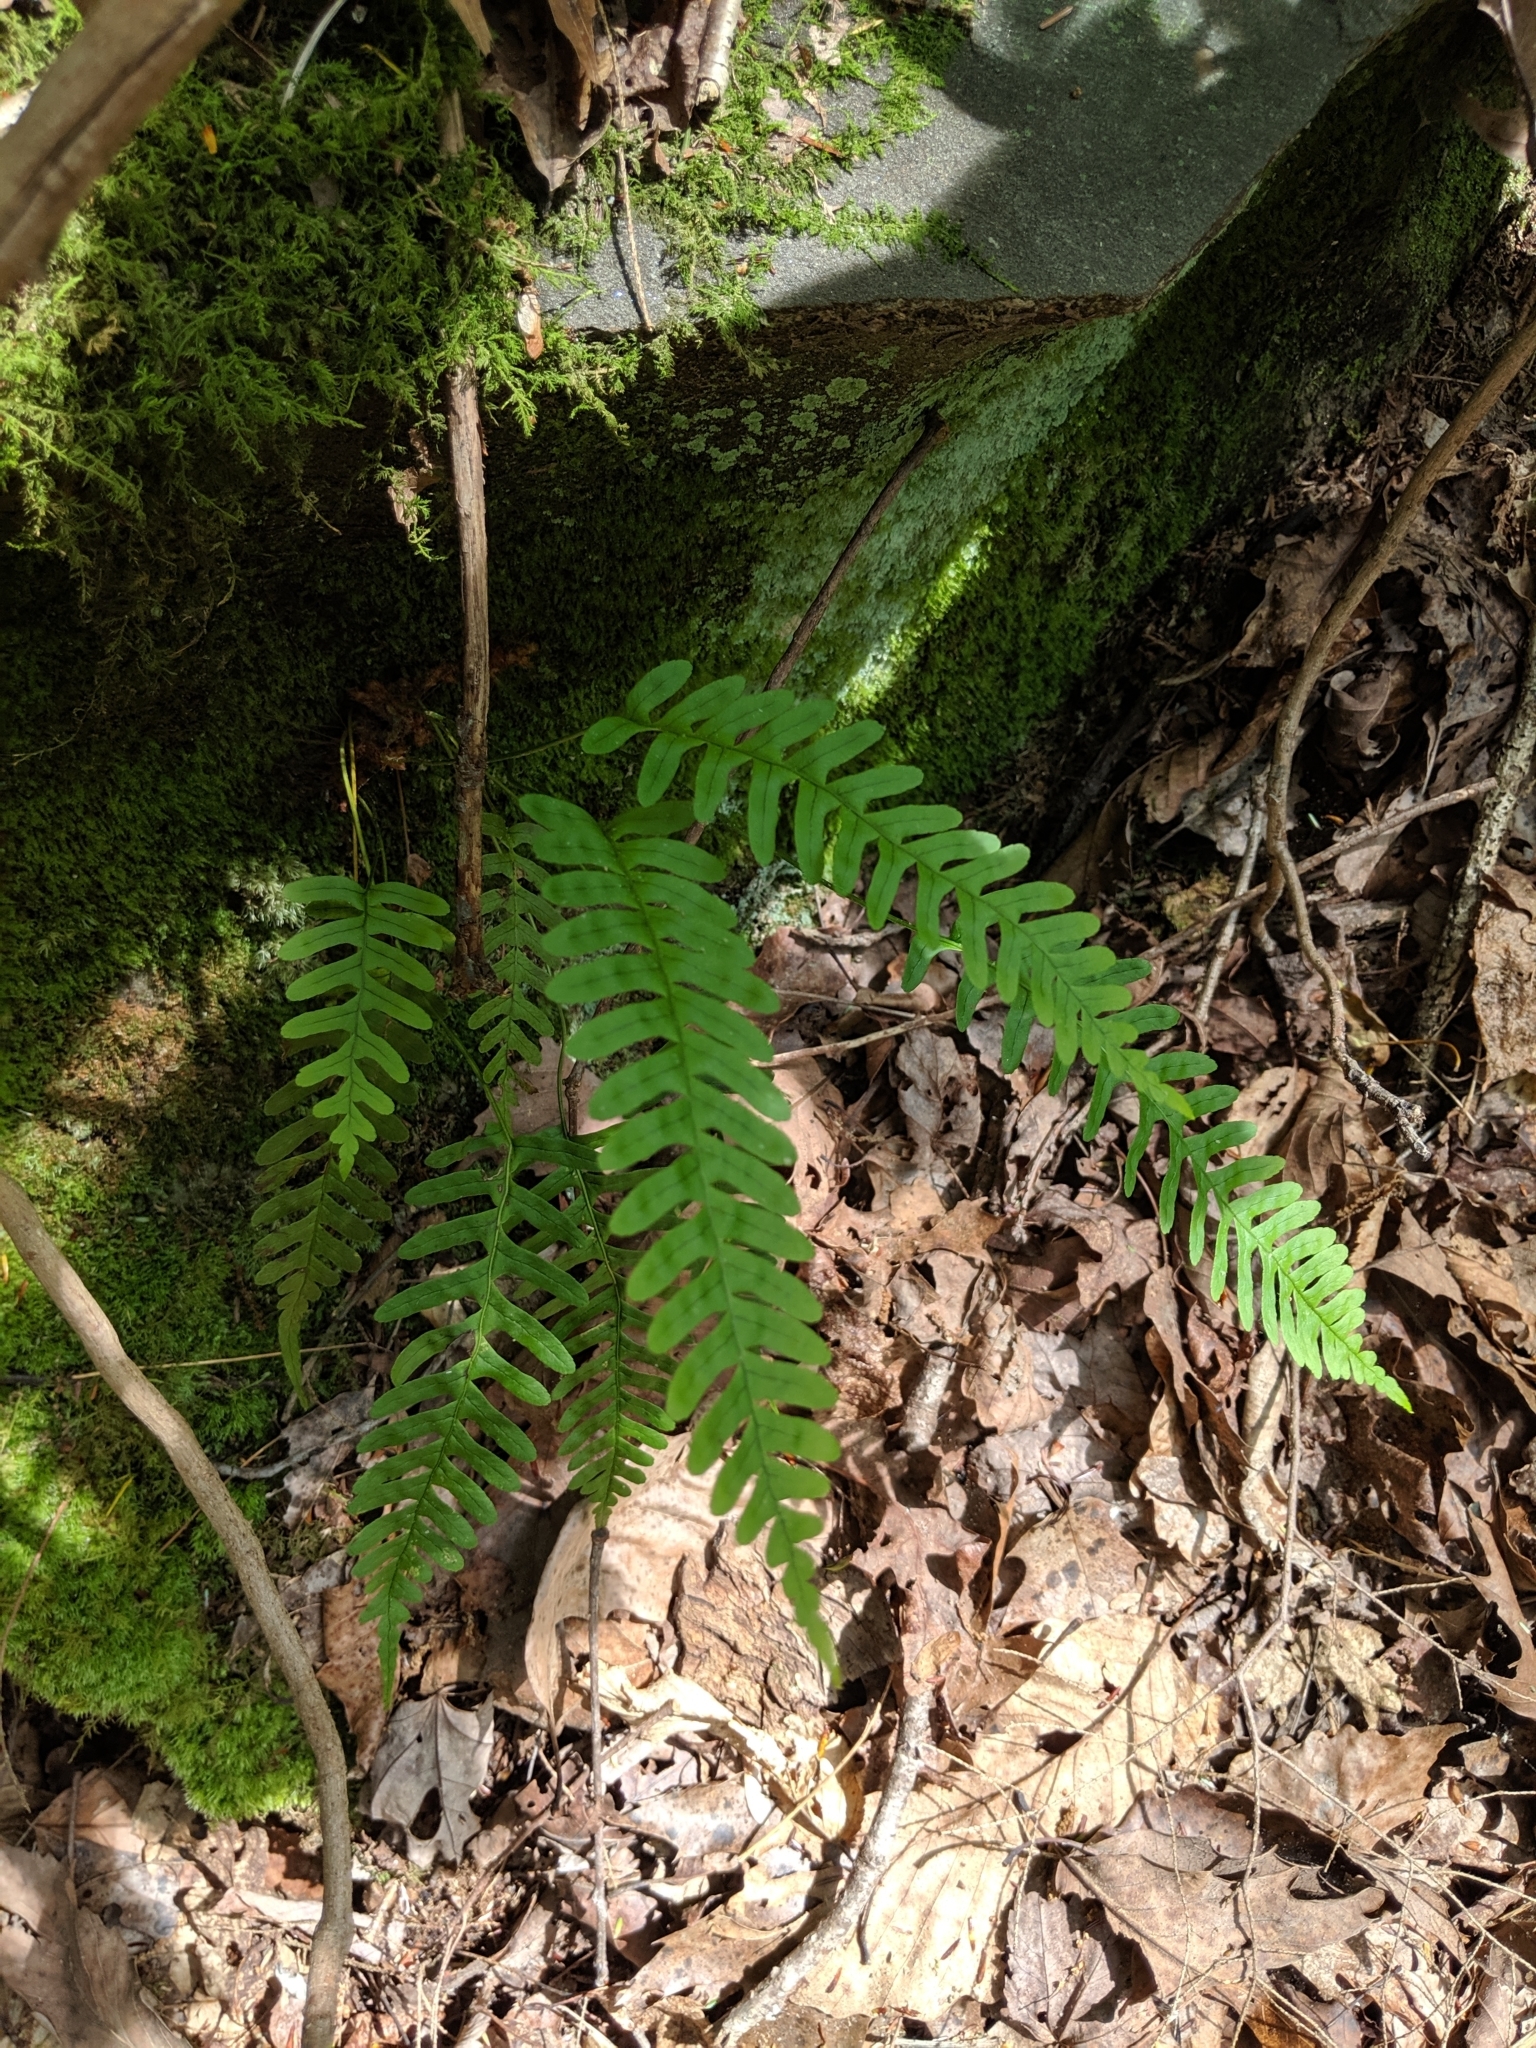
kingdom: Plantae
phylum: Tracheophyta
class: Polypodiopsida
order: Polypodiales
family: Polypodiaceae
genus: Polypodium
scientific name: Polypodium virginianum
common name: American wall fern
